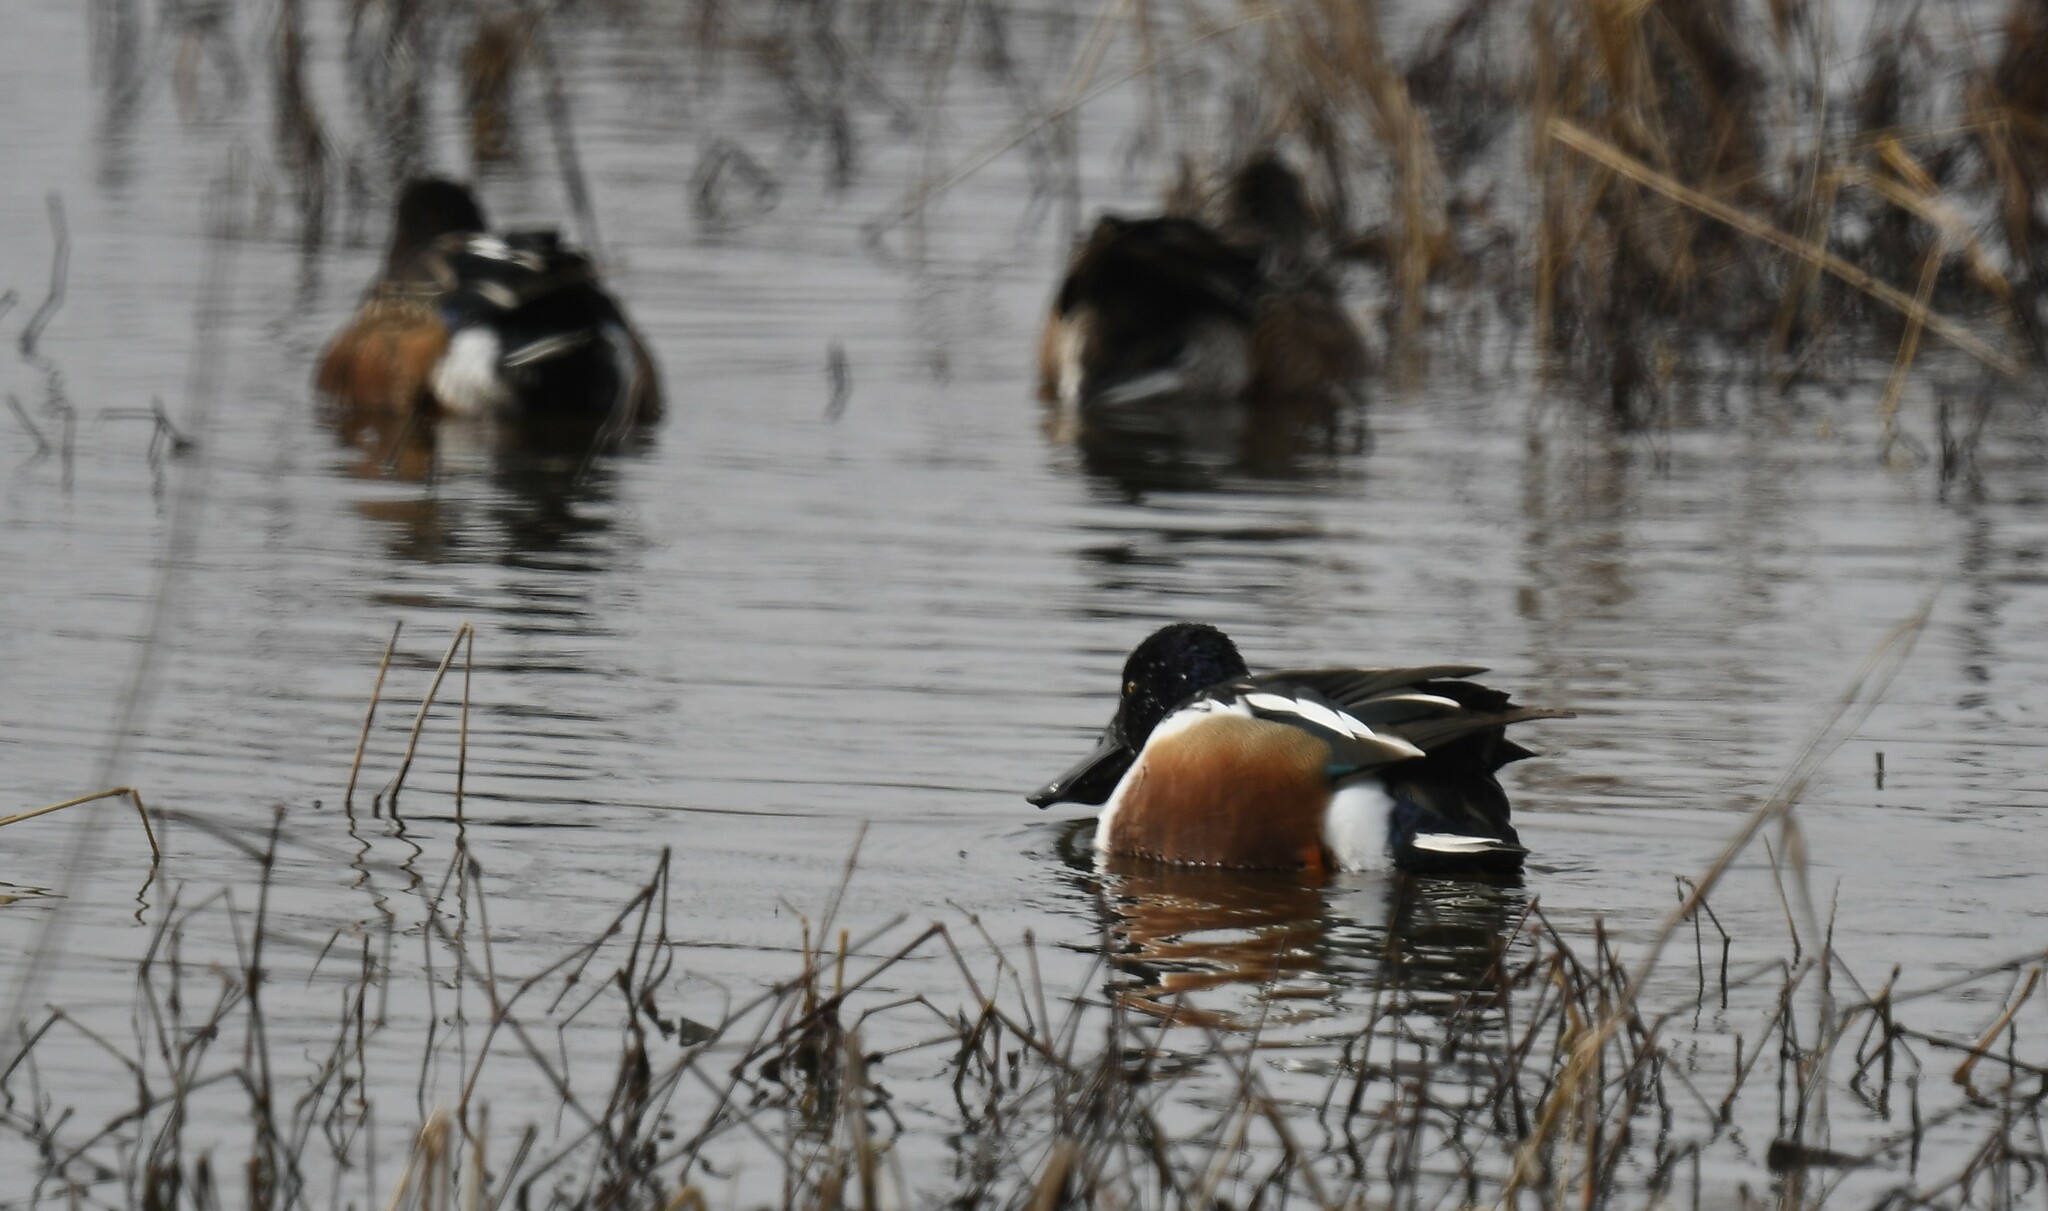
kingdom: Animalia
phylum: Chordata
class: Aves
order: Anseriformes
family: Anatidae
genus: Spatula
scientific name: Spatula clypeata
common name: Northern shoveler
